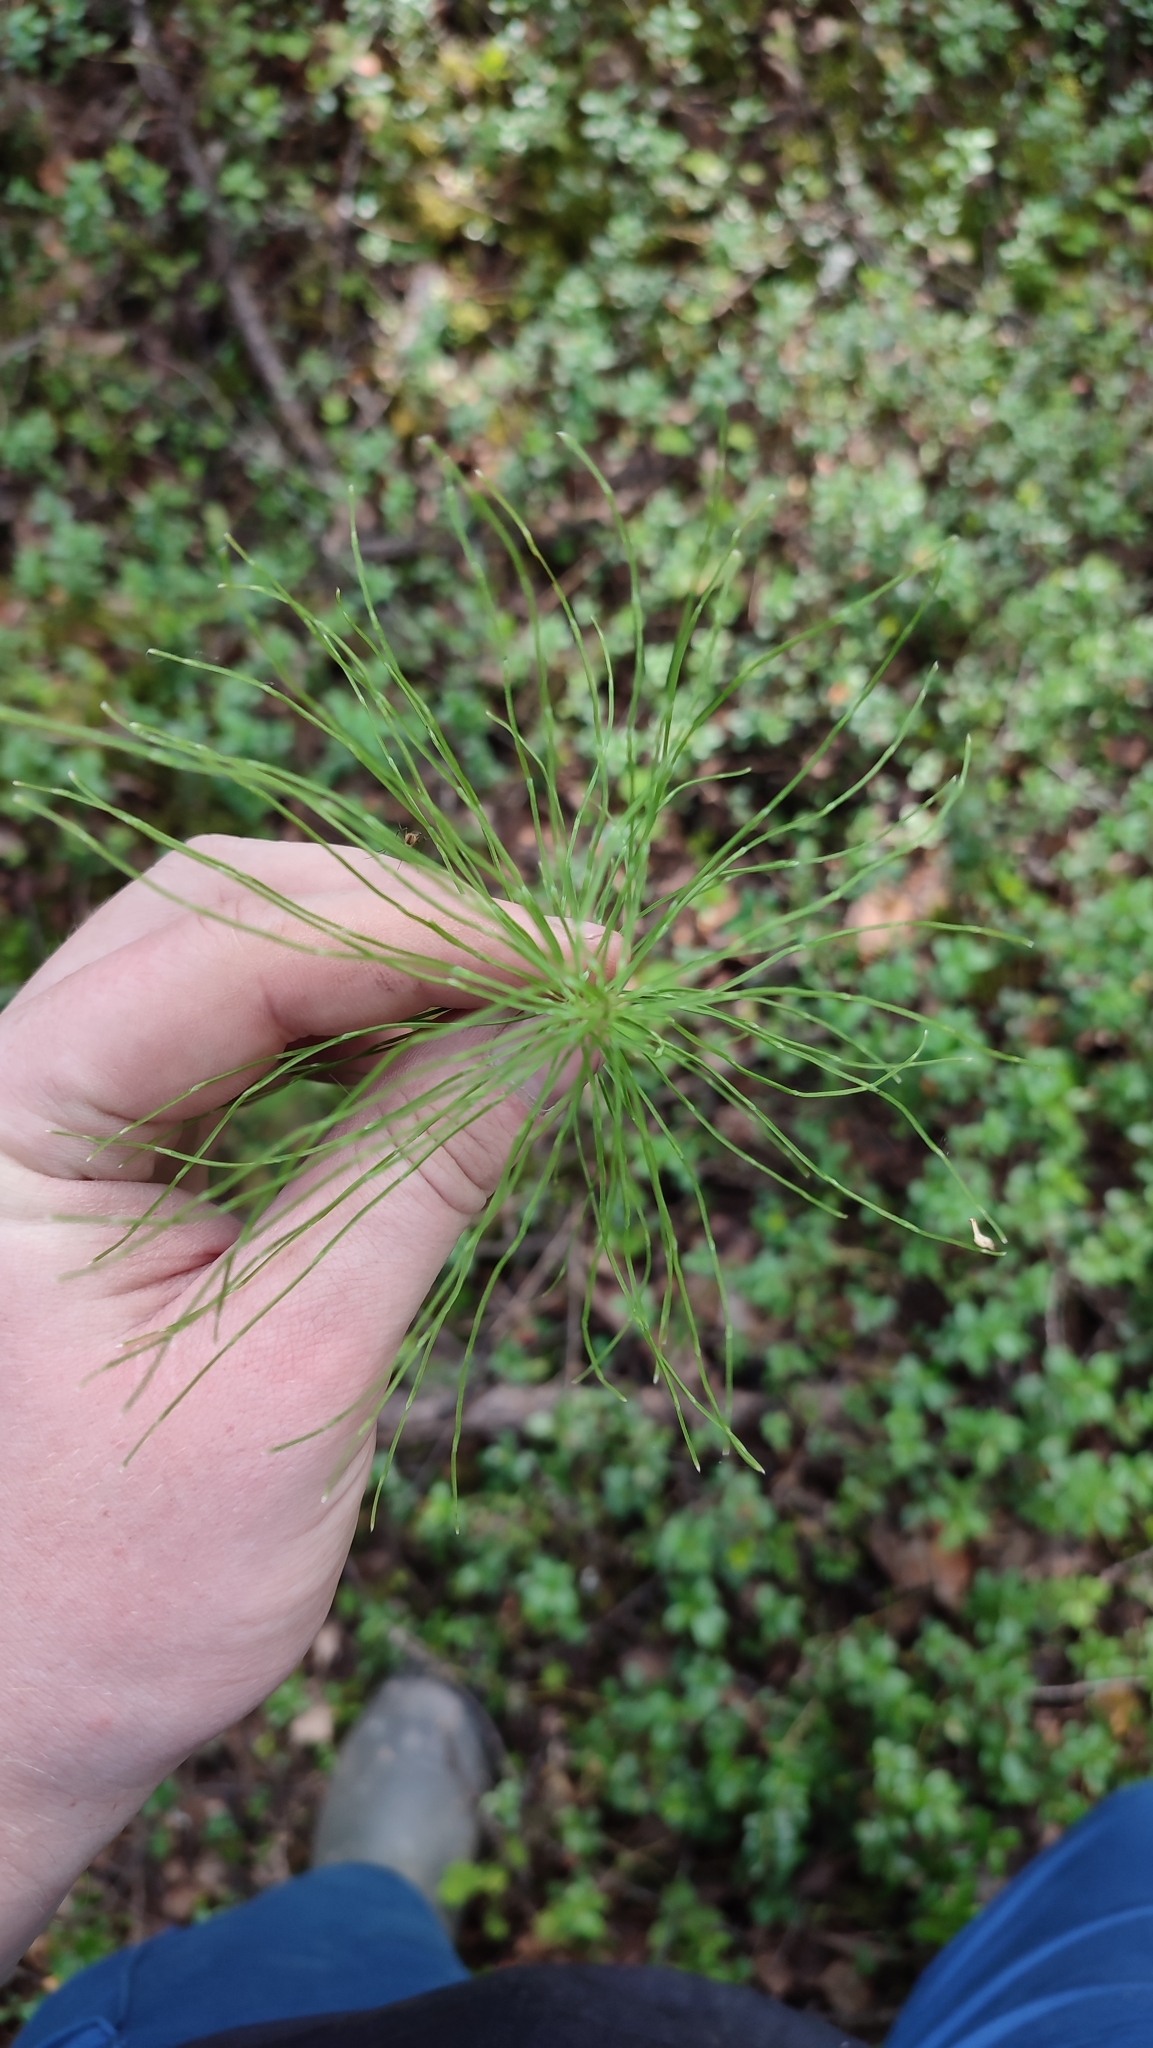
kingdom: Plantae
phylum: Tracheophyta
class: Polypodiopsida
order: Equisetales
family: Equisetaceae
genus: Equisetum
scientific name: Equisetum pratense
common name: Meadow horsetail
